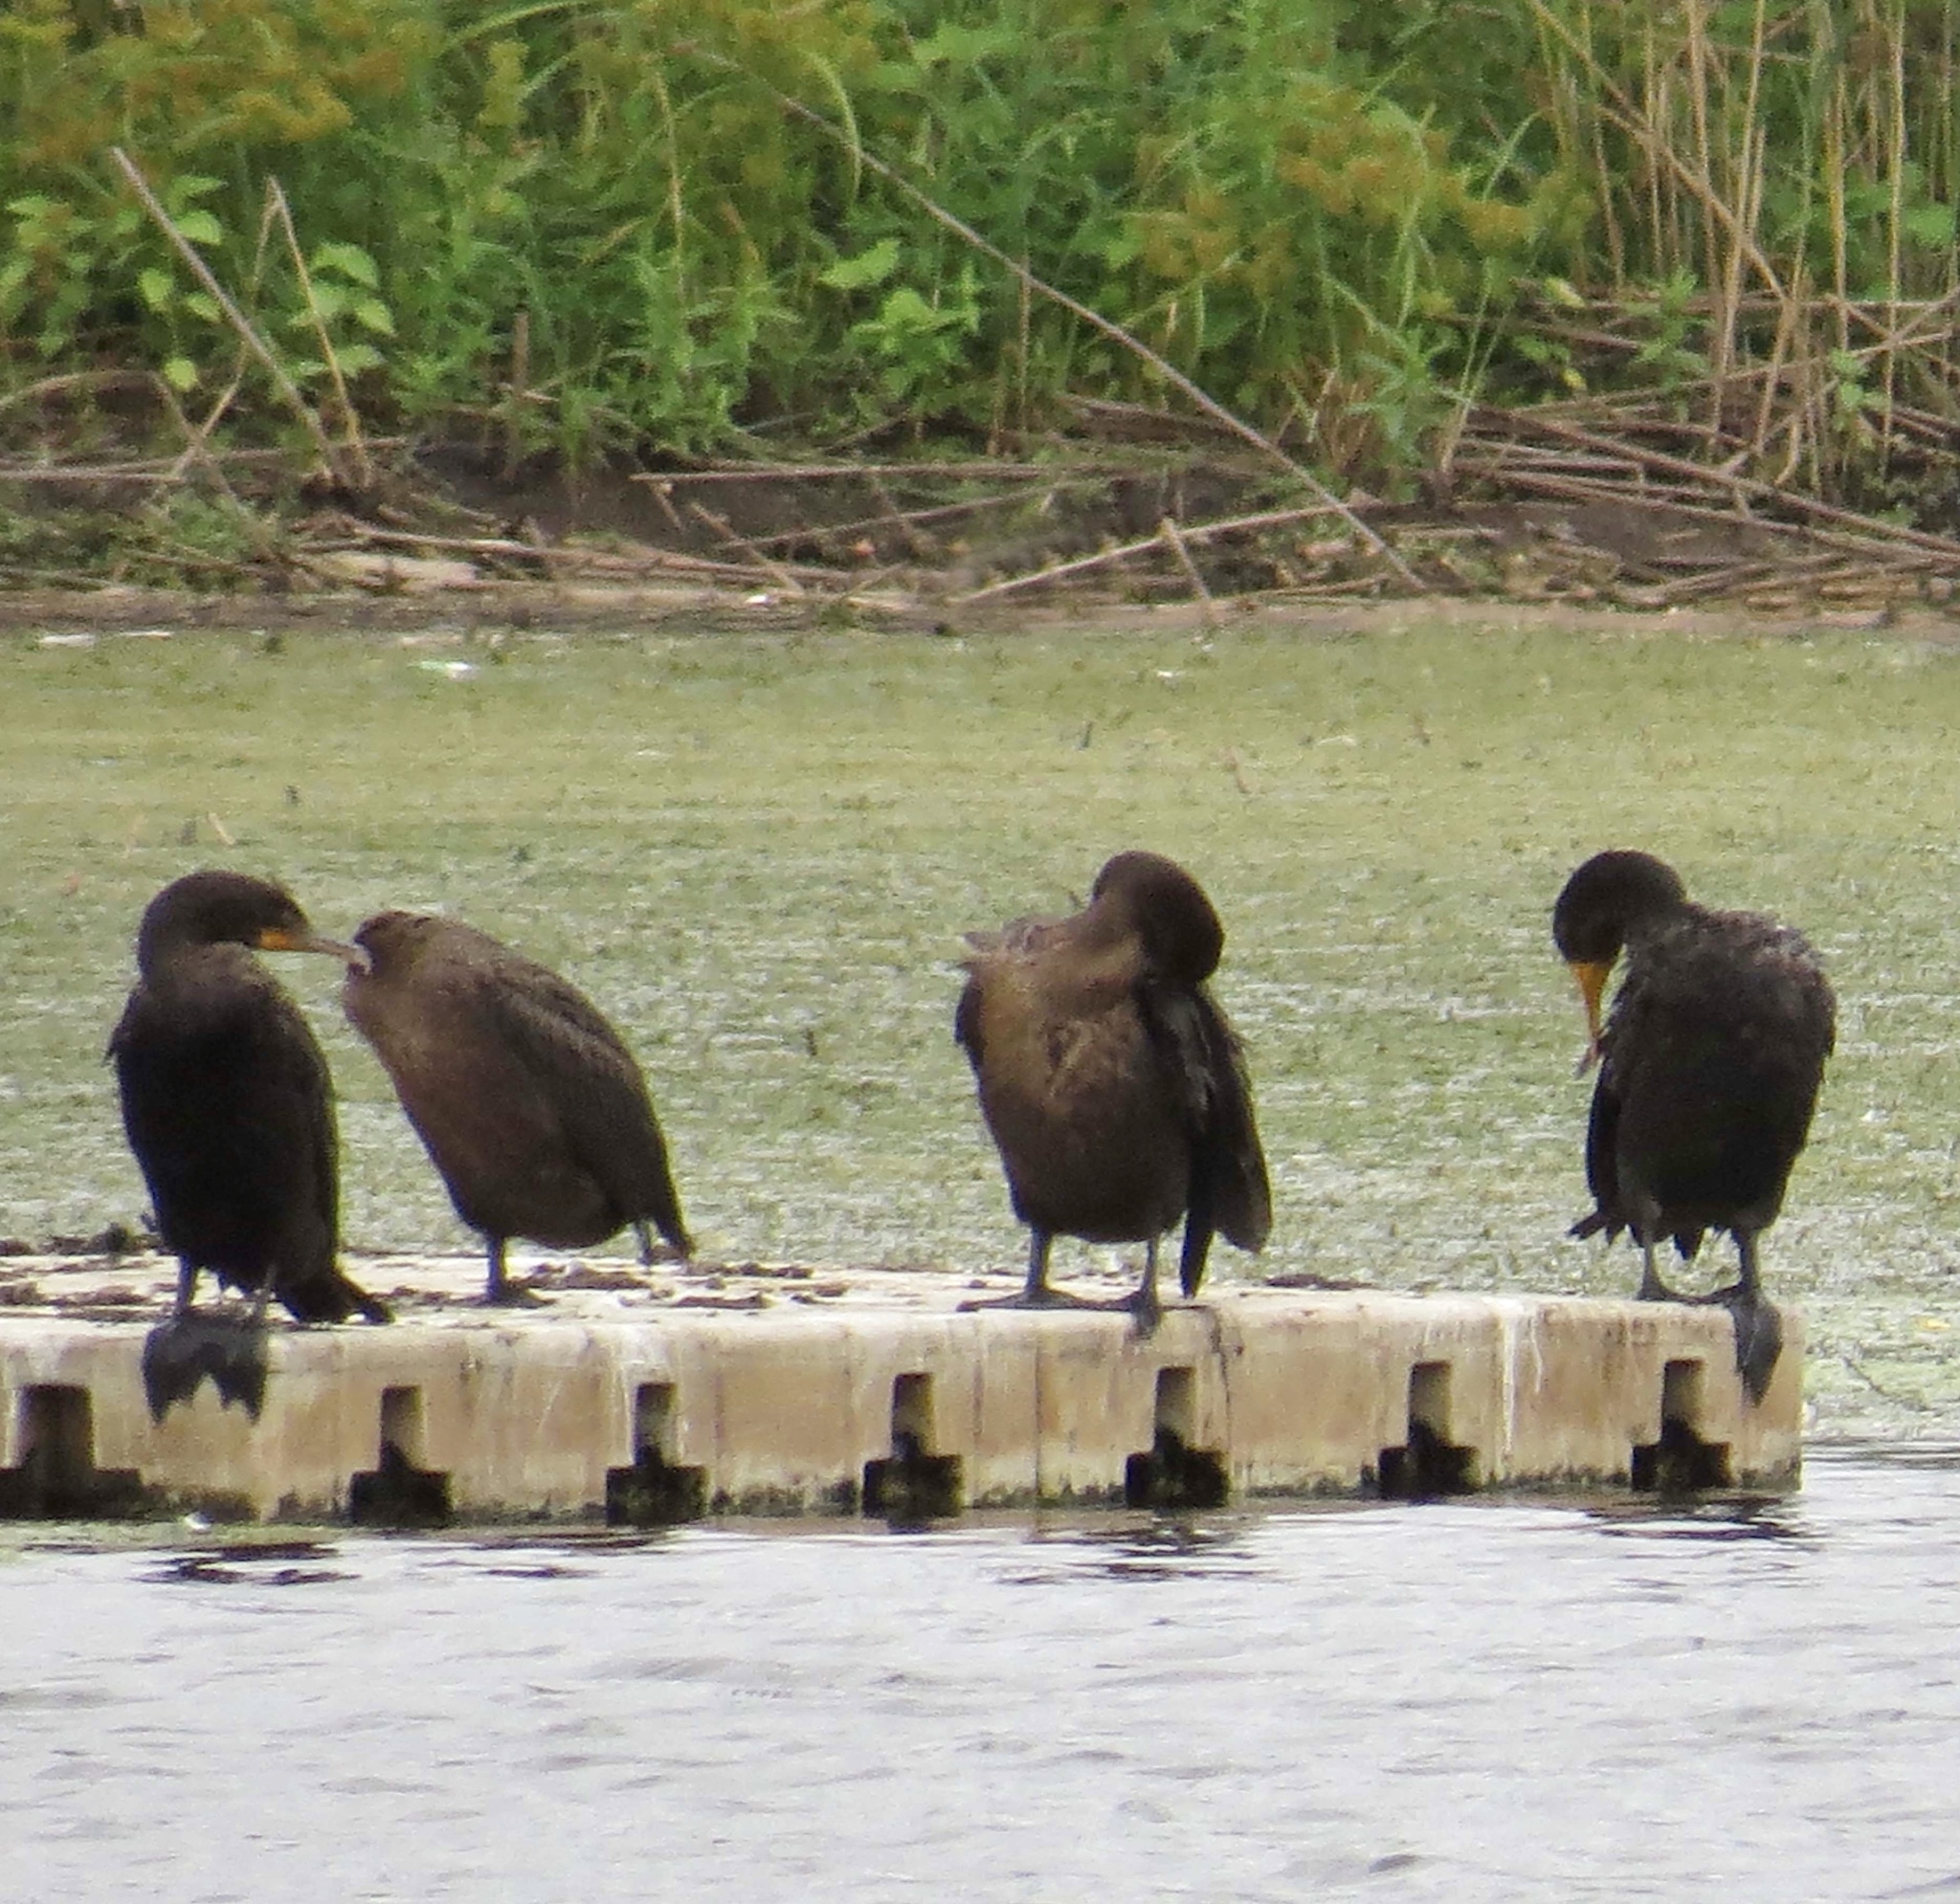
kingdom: Animalia
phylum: Chordata
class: Aves
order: Suliformes
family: Phalacrocoracidae
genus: Phalacrocorax
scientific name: Phalacrocorax auritus
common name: Double-crested cormorant
